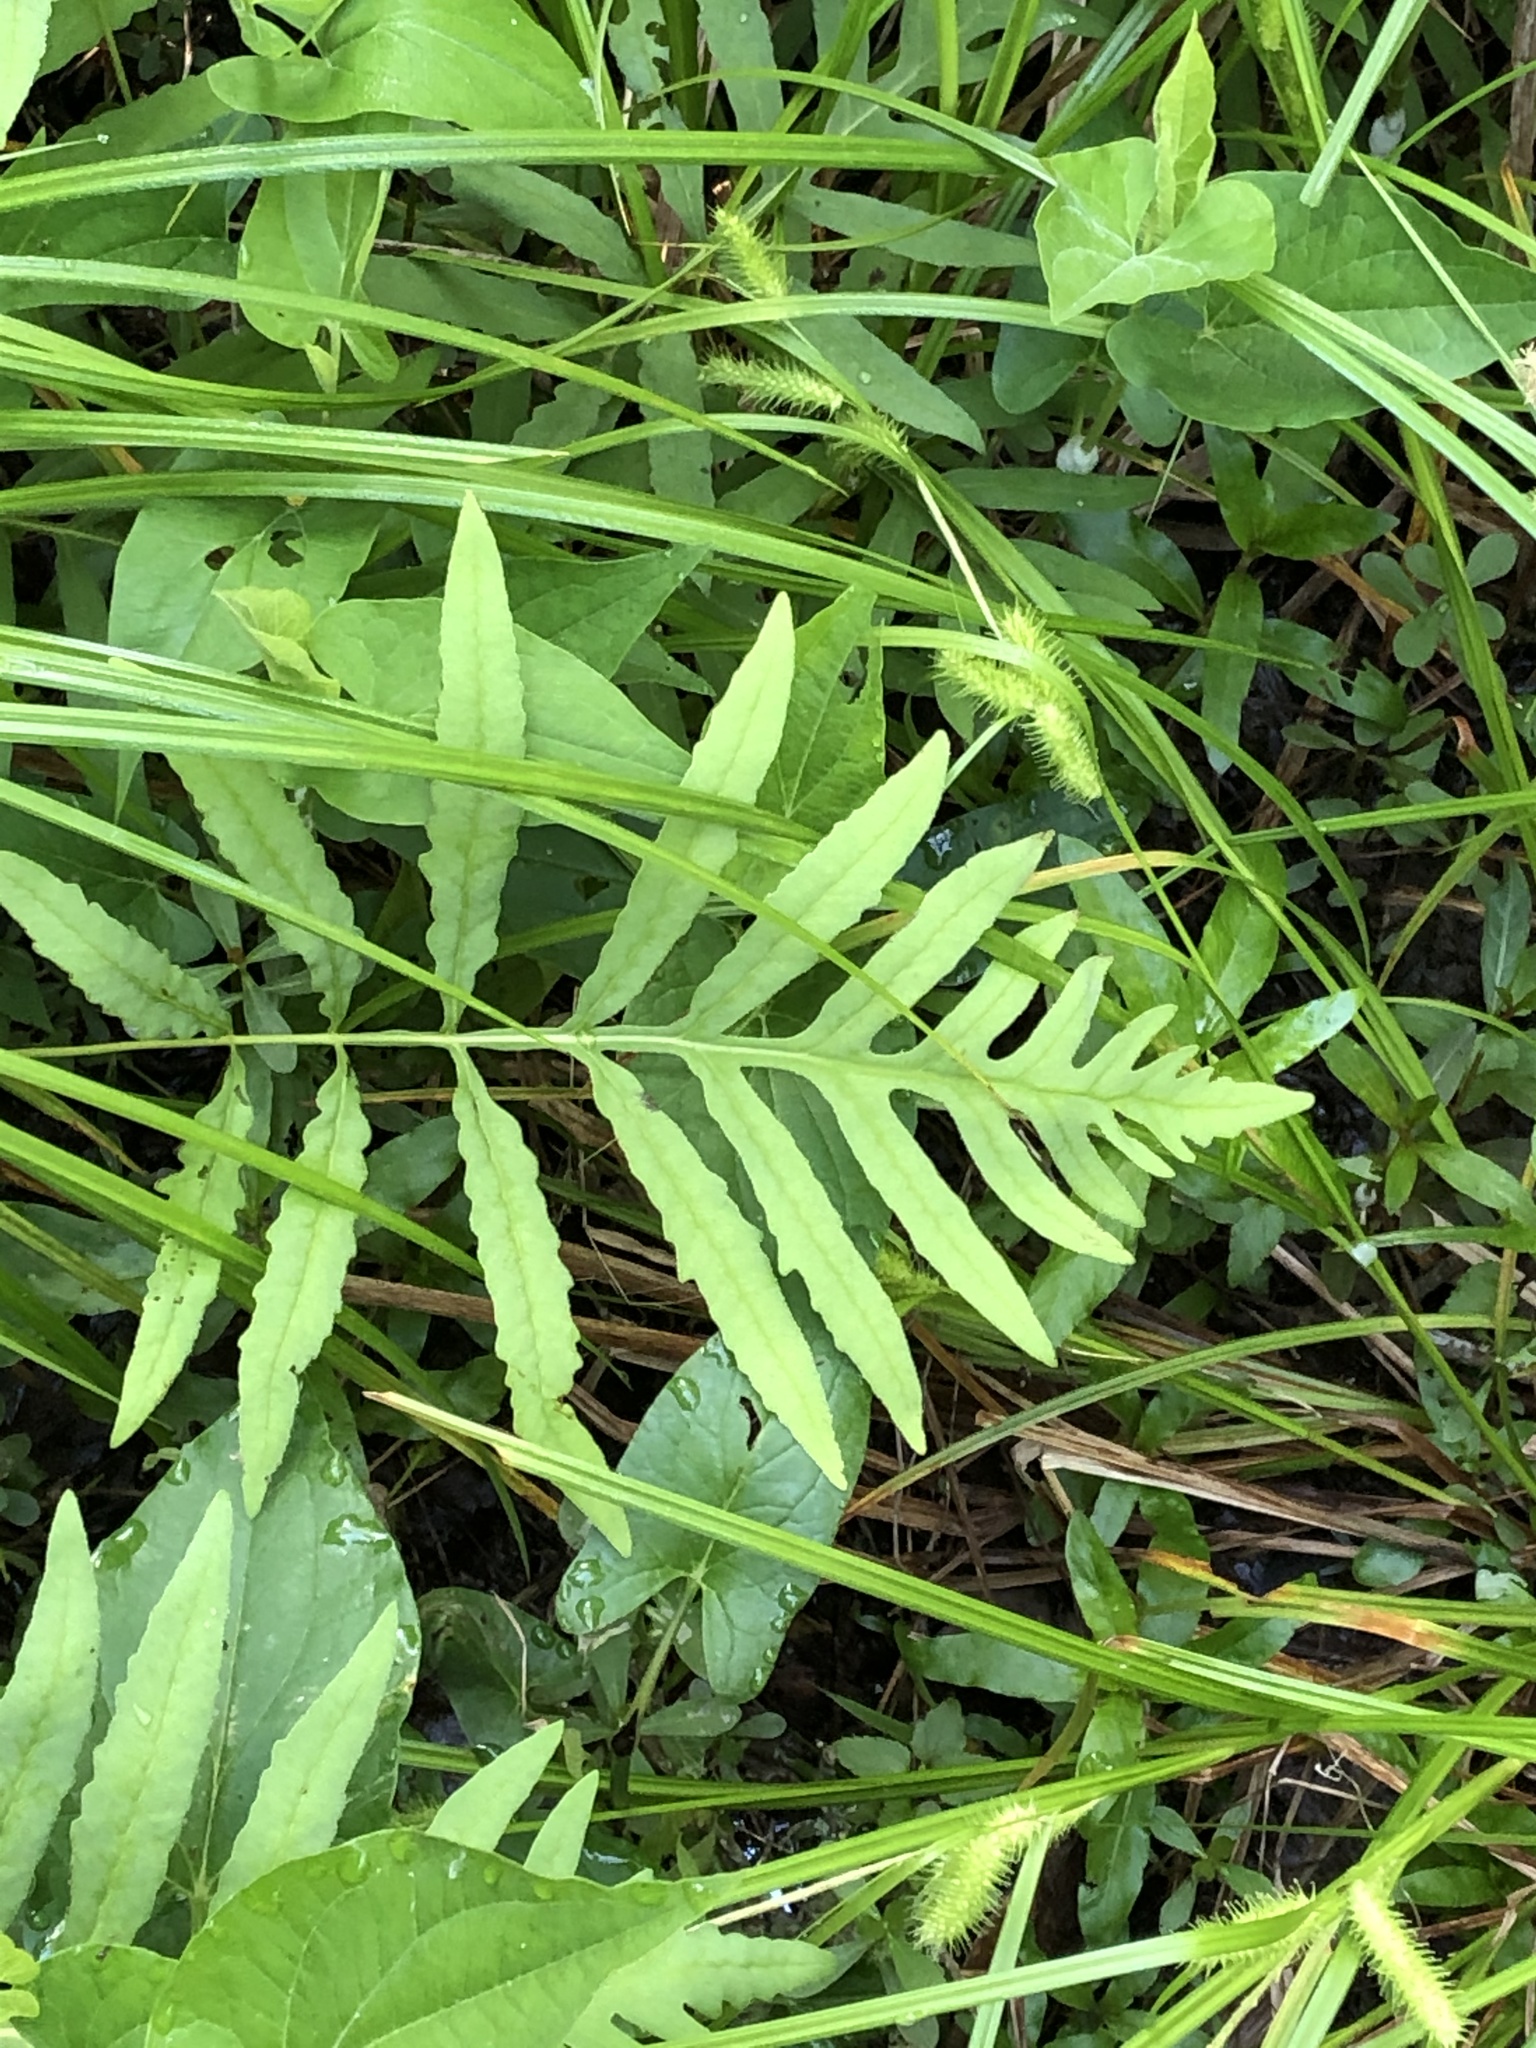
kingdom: Plantae
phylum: Tracheophyta
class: Polypodiopsida
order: Polypodiales
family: Onocleaceae
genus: Onoclea
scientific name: Onoclea sensibilis
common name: Sensitive fern
